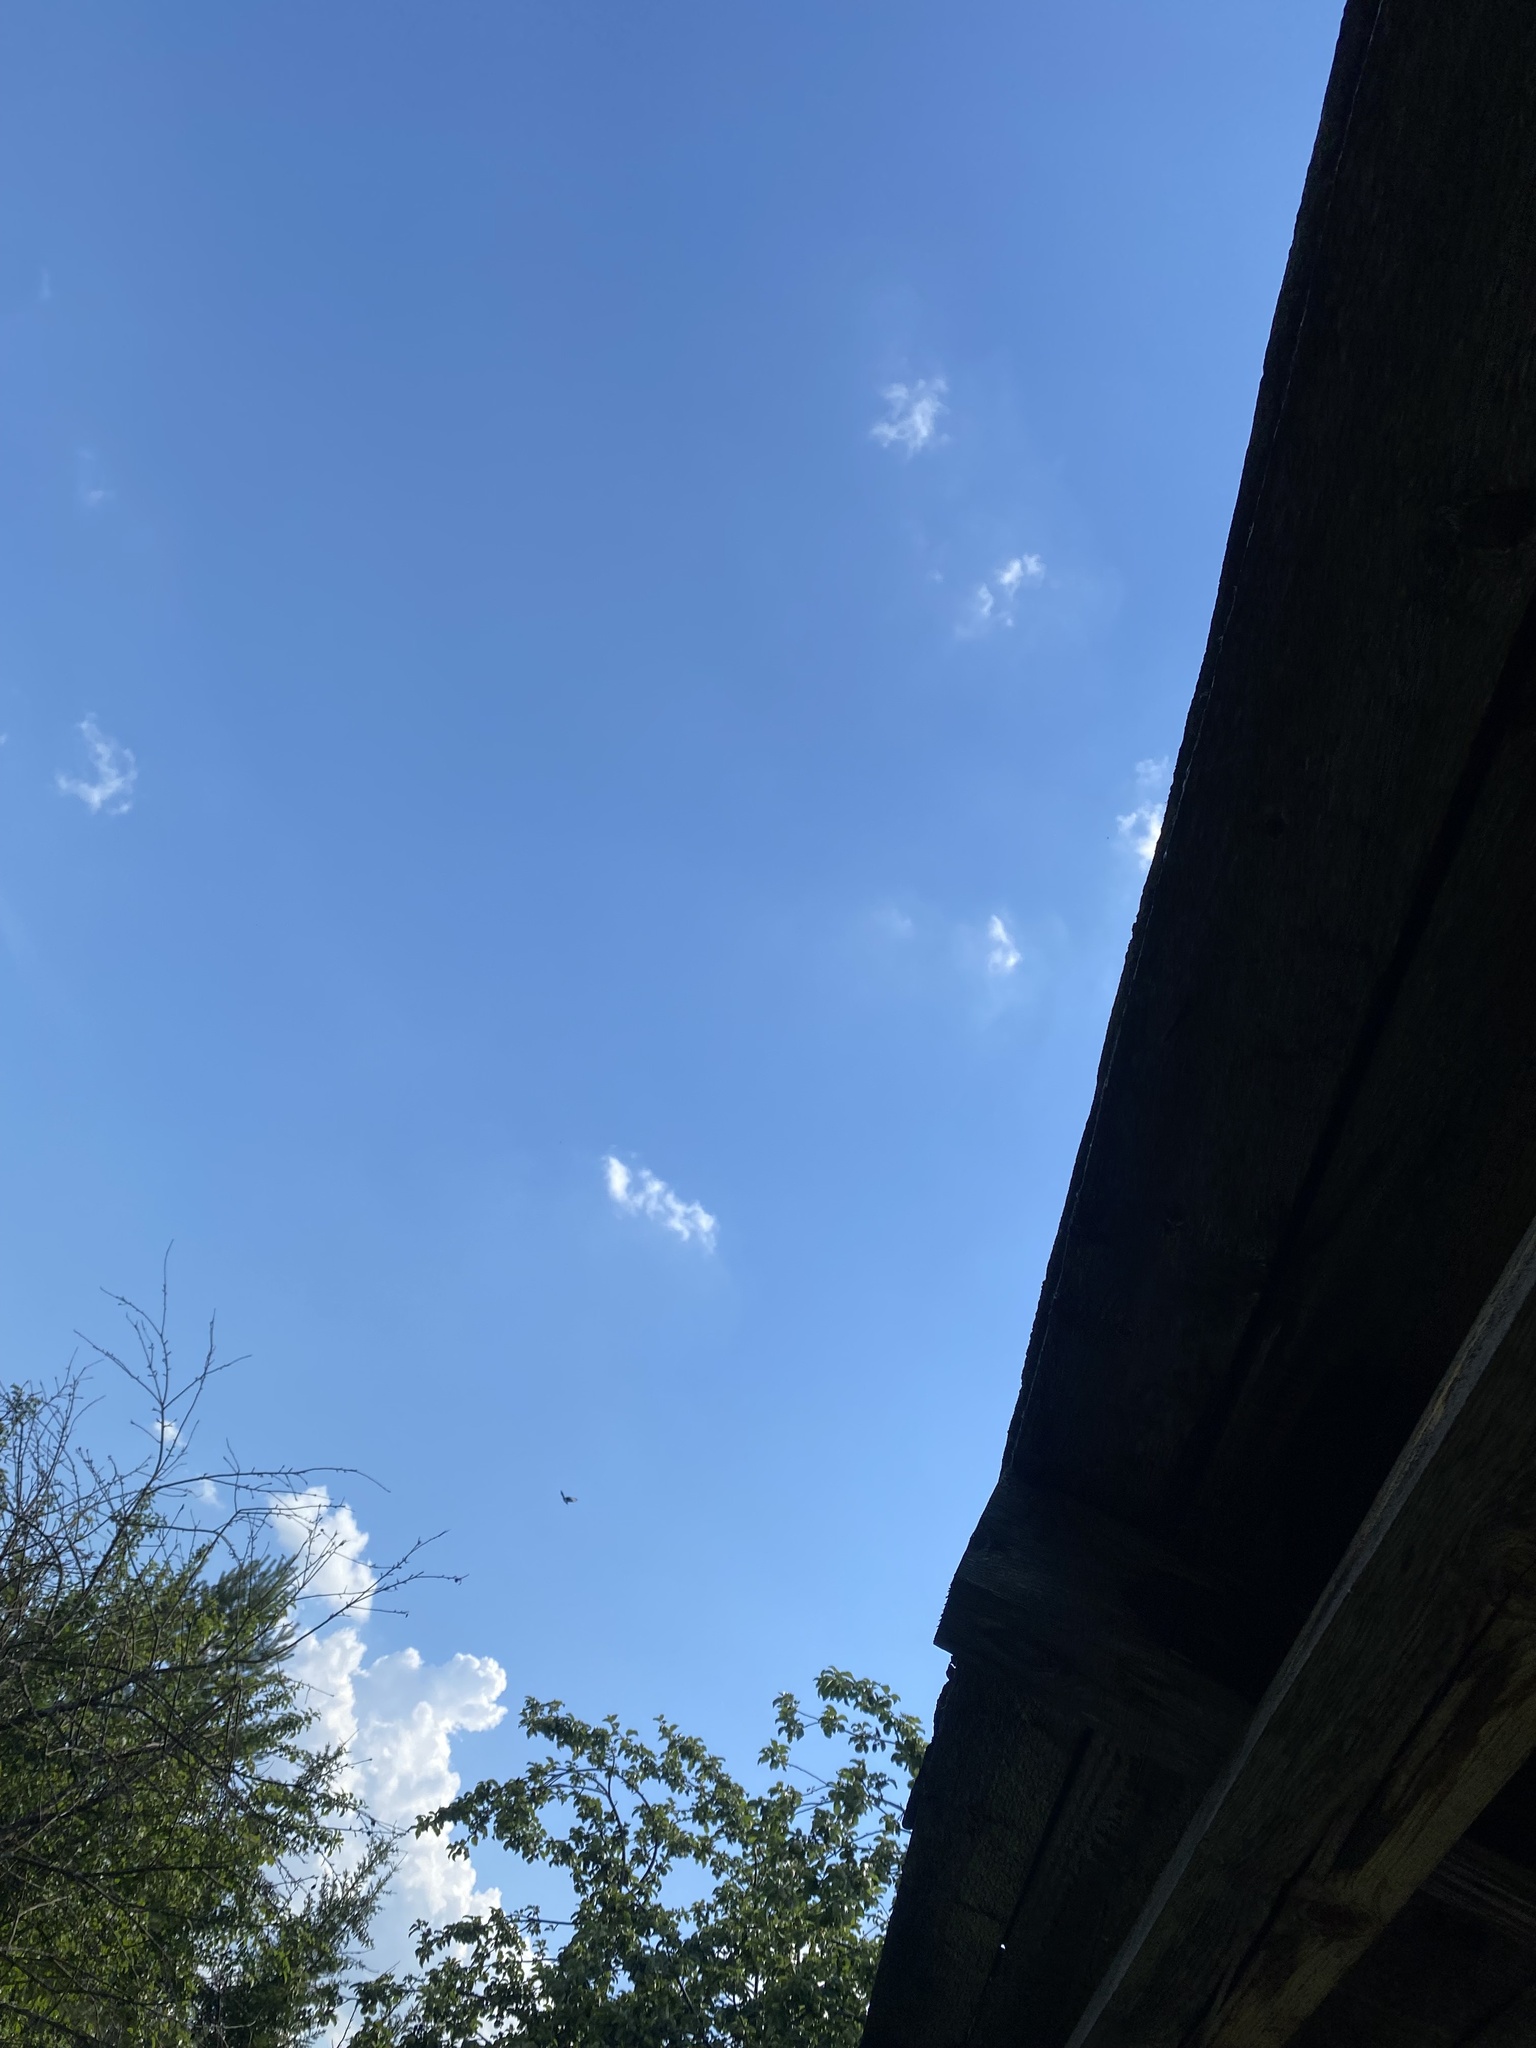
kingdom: Animalia
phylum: Chordata
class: Aves
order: Passeriformes
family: Corvidae
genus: Pica
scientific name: Pica pica
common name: Eurasian magpie
